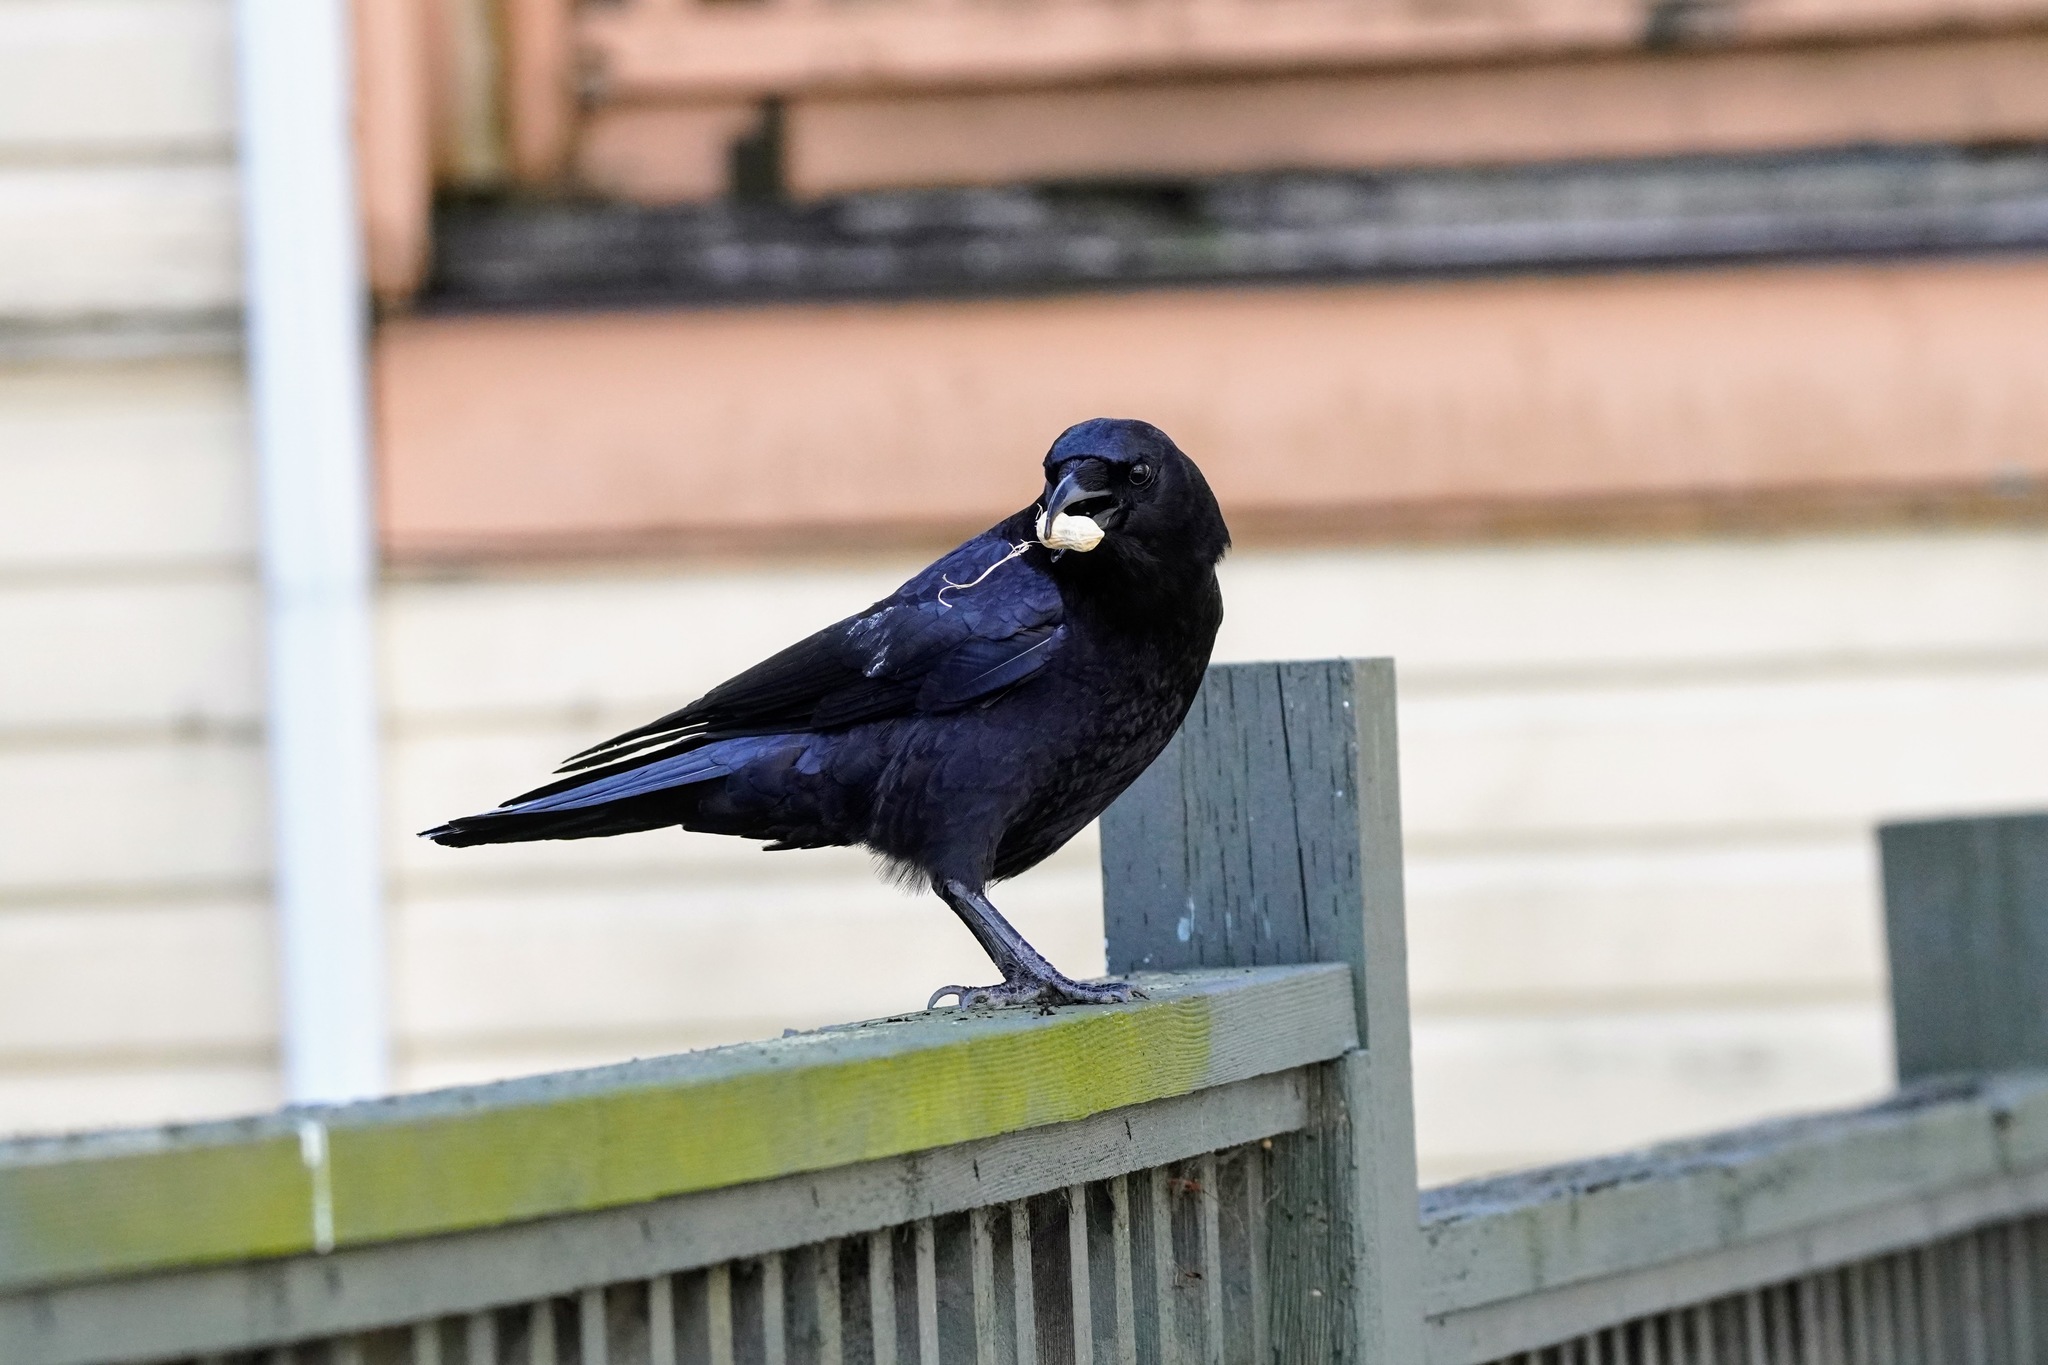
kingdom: Animalia
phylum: Chordata
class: Aves
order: Passeriformes
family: Corvidae
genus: Corvus
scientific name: Corvus brachyrhynchos
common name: American crow
